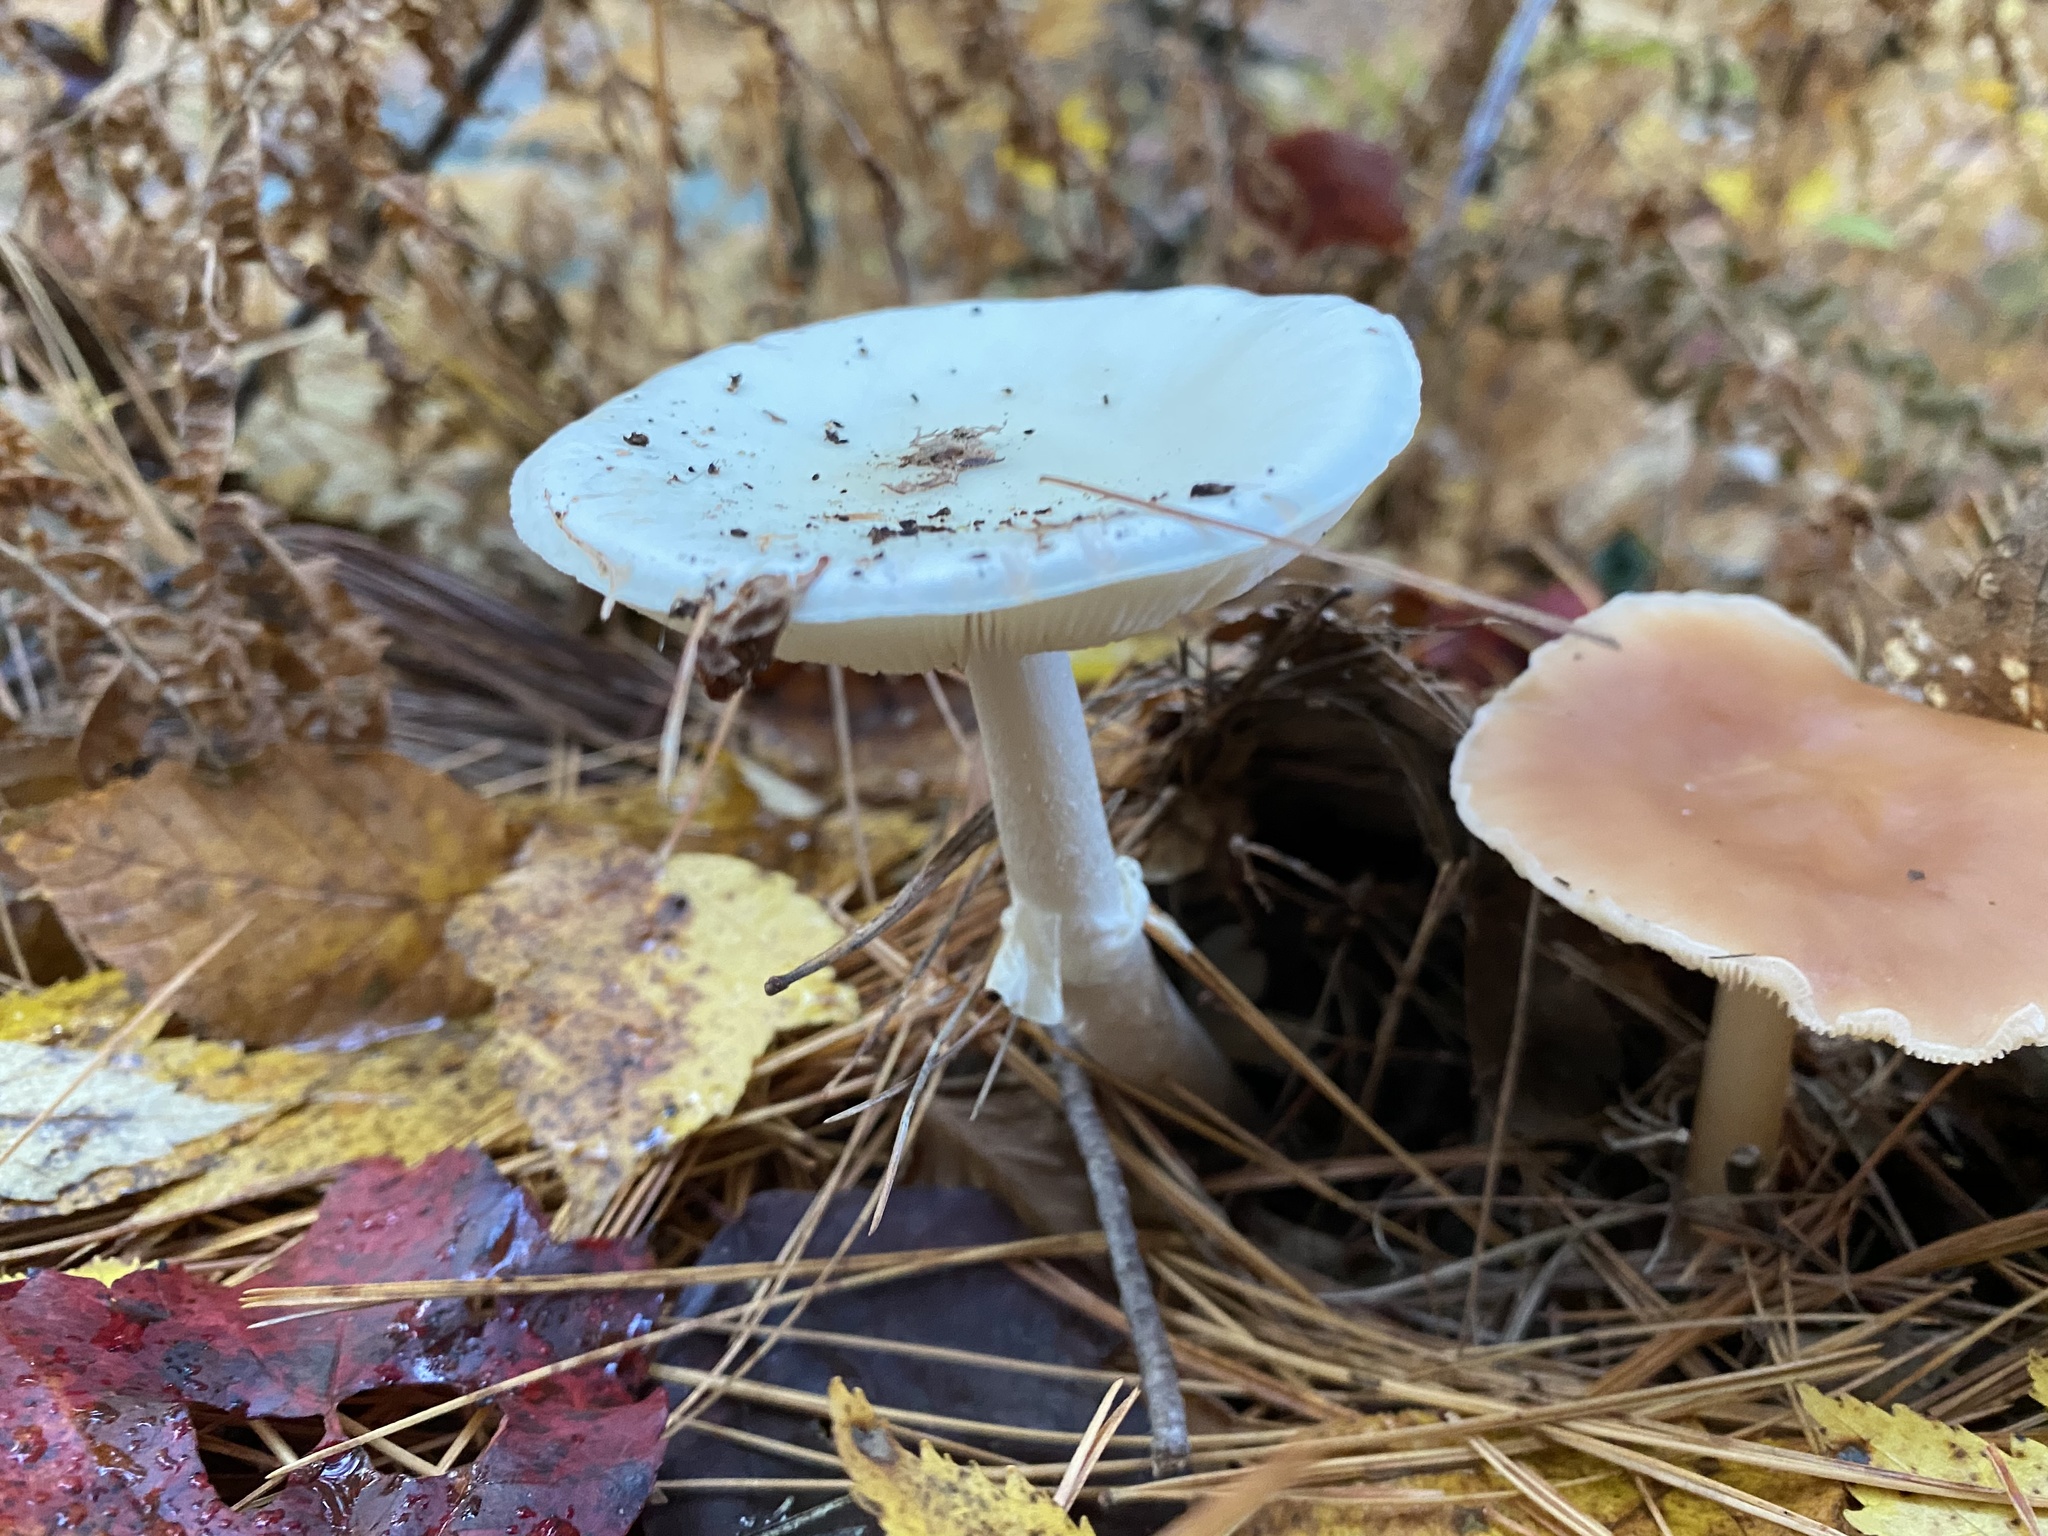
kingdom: Fungi
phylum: Basidiomycota
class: Agaricomycetes
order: Agaricales
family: Amanitaceae
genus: Amanita
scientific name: Amanita bisporigera
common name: Eastern north american destroying angel
